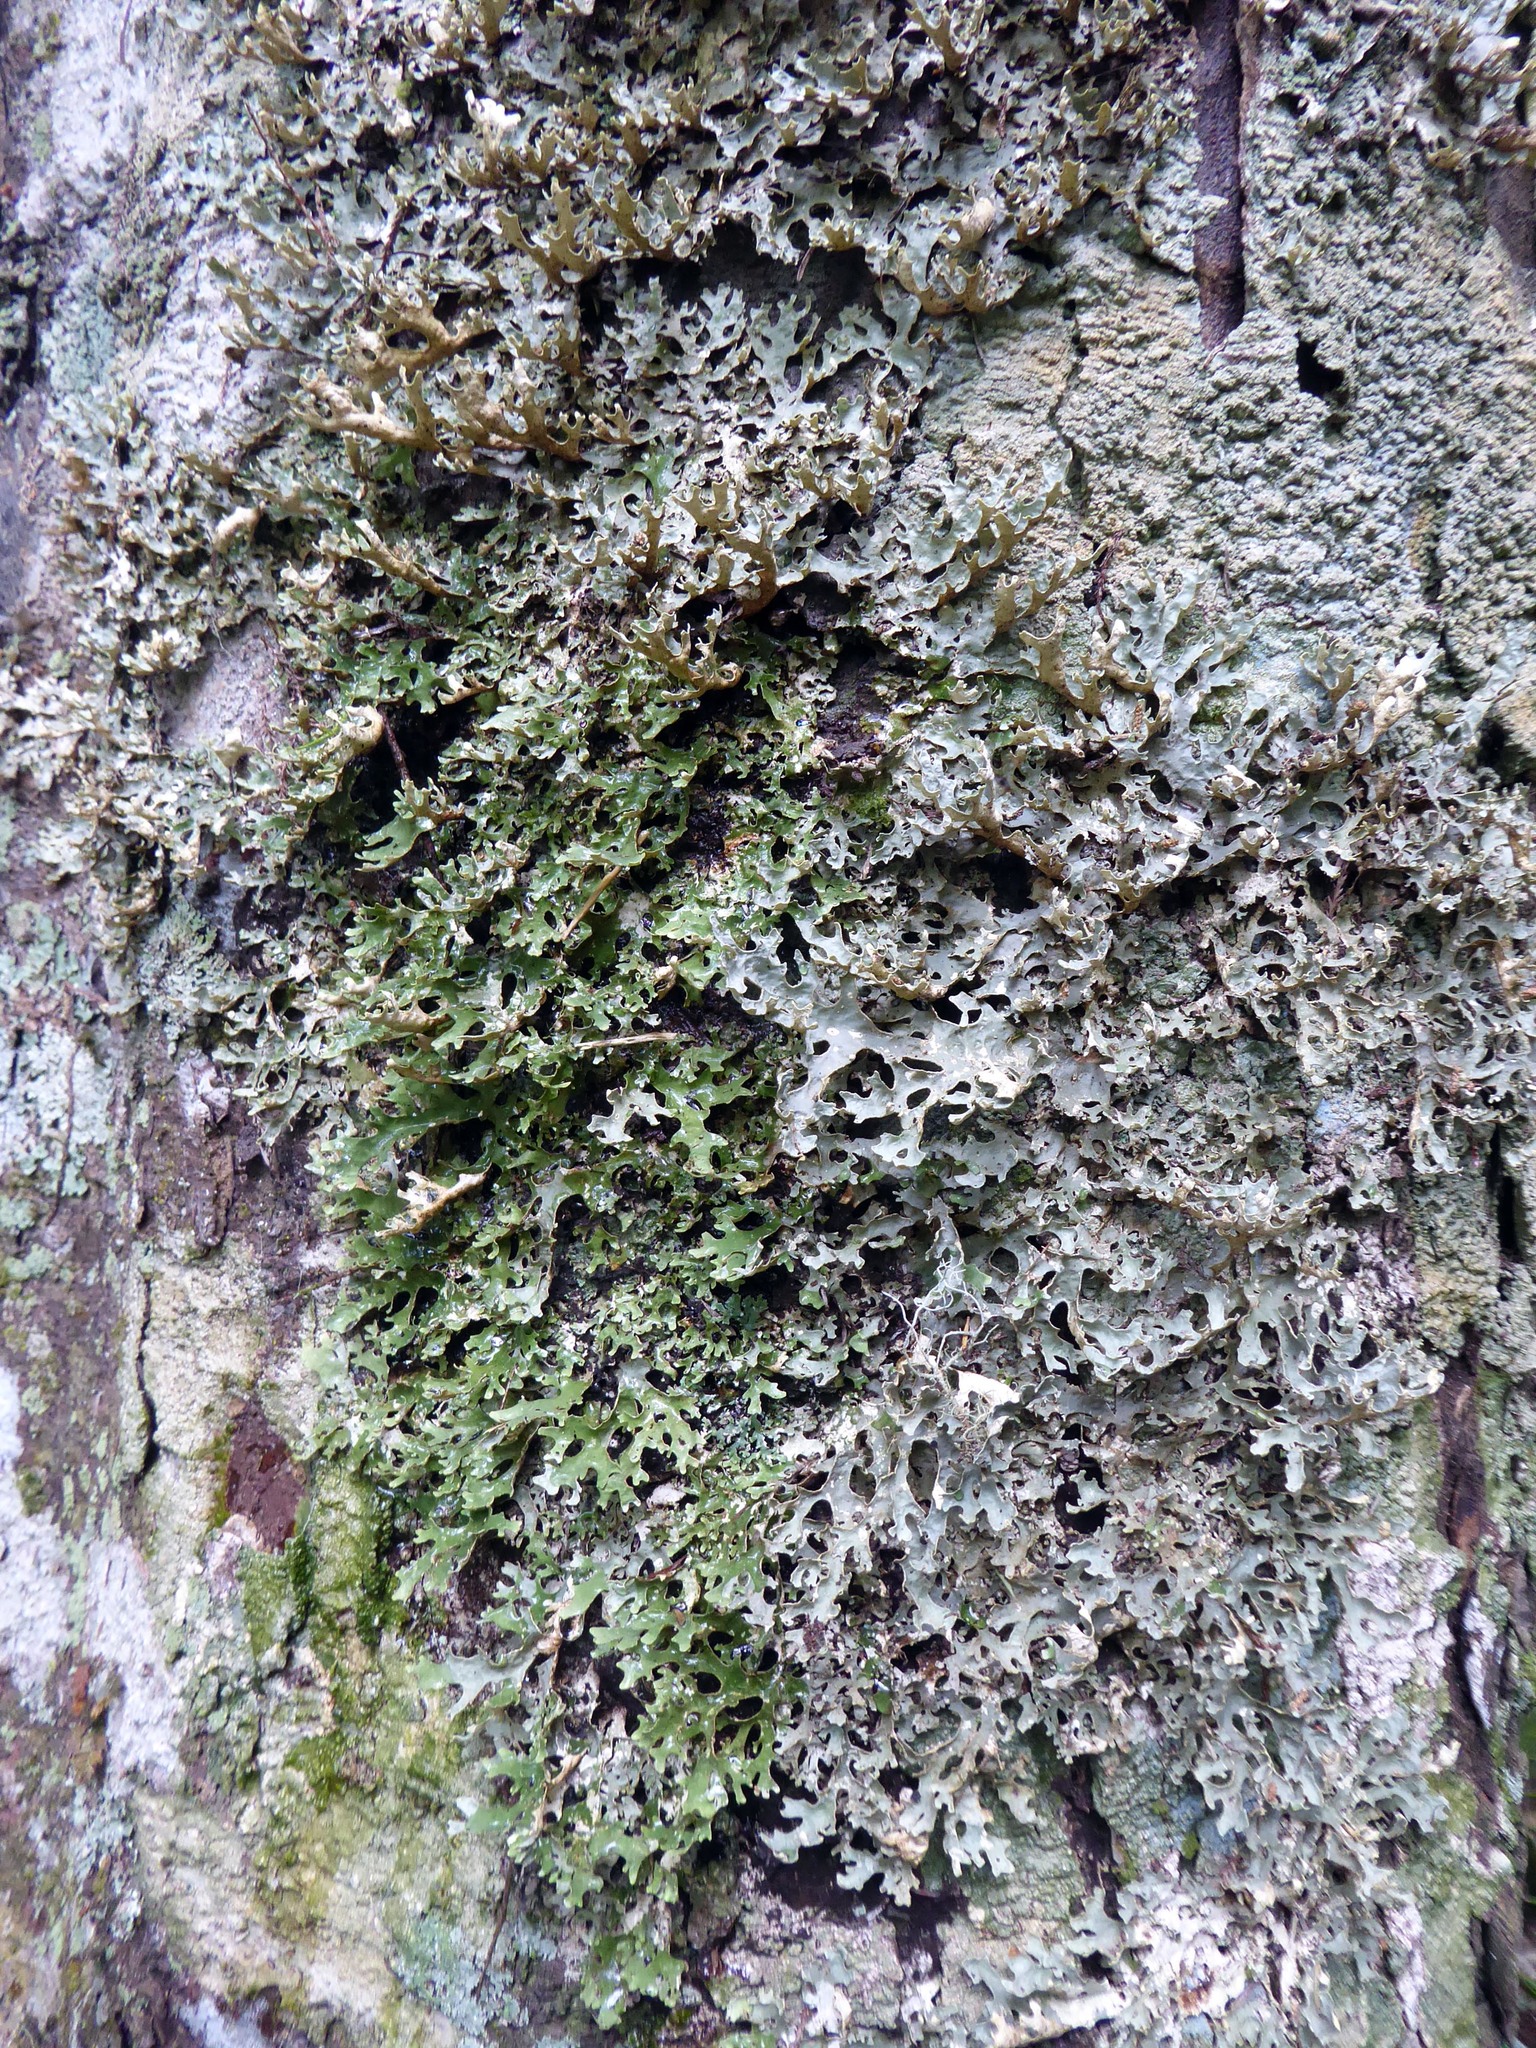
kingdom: Fungi
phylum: Ascomycota
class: Lecanoromycetes
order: Peltigerales
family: Lobariaceae
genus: Pseudocyphellaria
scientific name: Pseudocyphellaria carpoloma
